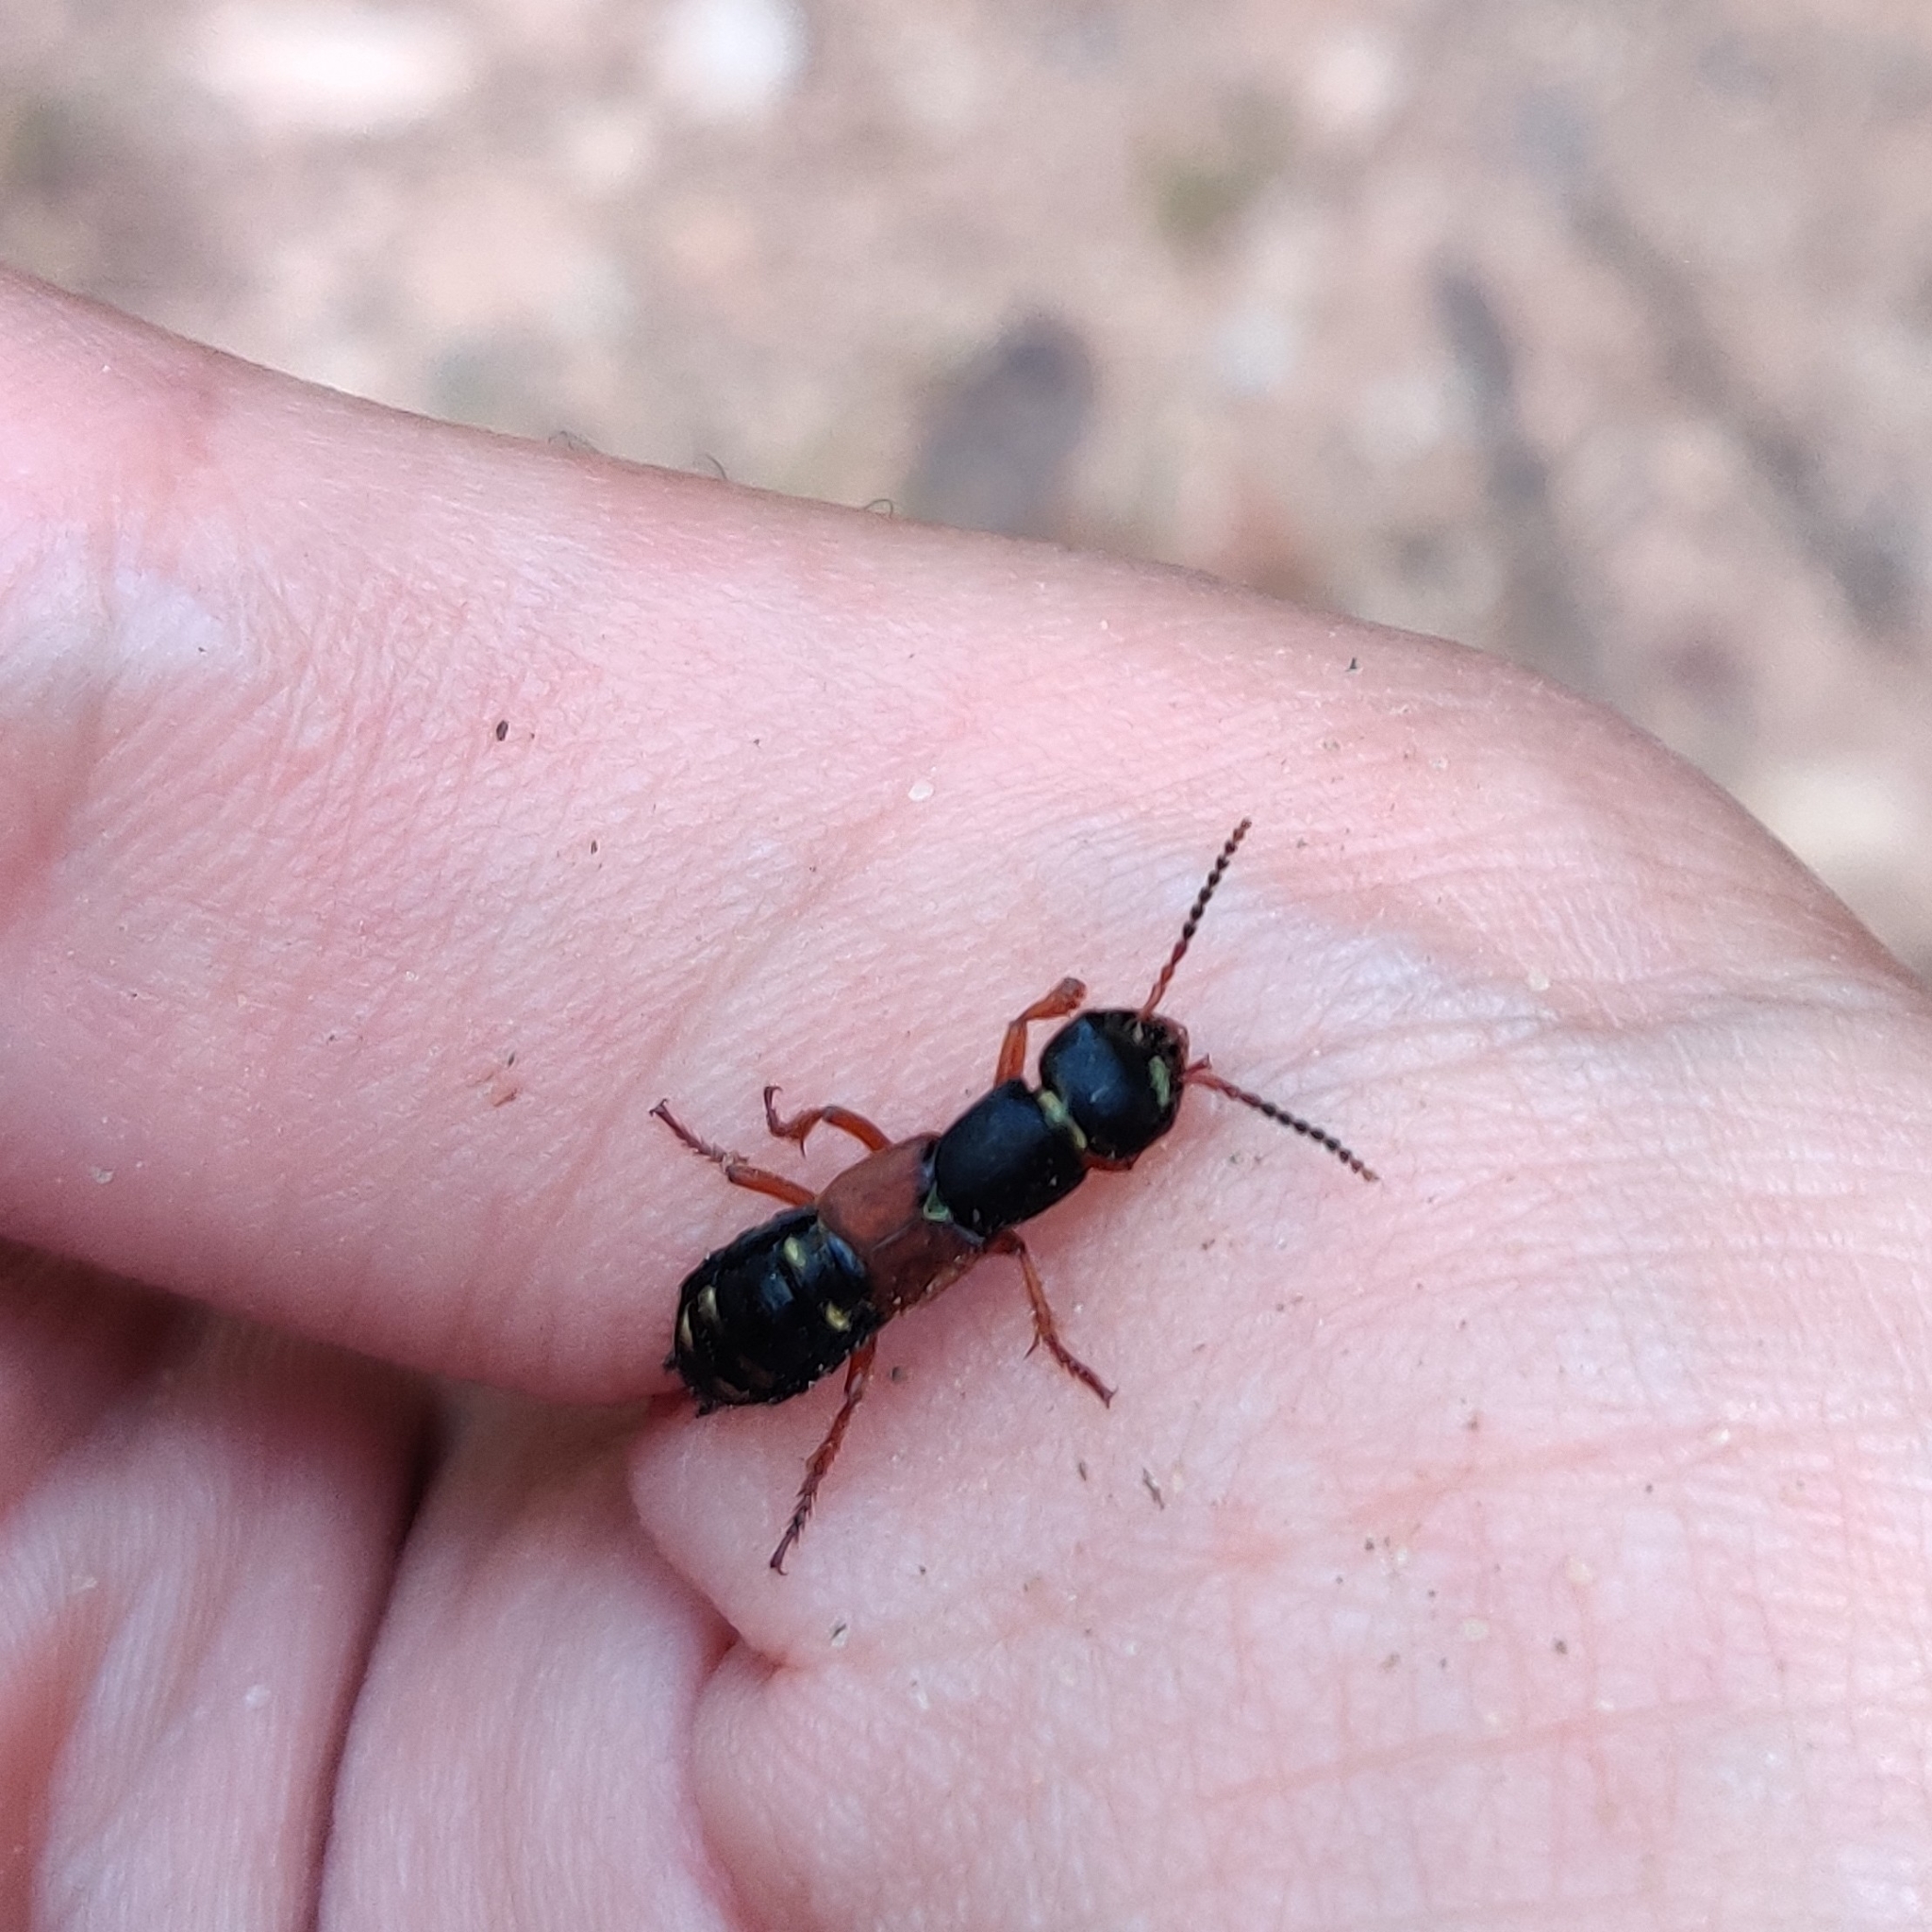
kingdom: Animalia
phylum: Arthropoda
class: Insecta
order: Coleoptera
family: Staphylinidae
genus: Staphylinus
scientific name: Staphylinus erythropterus
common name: Staph beetle
